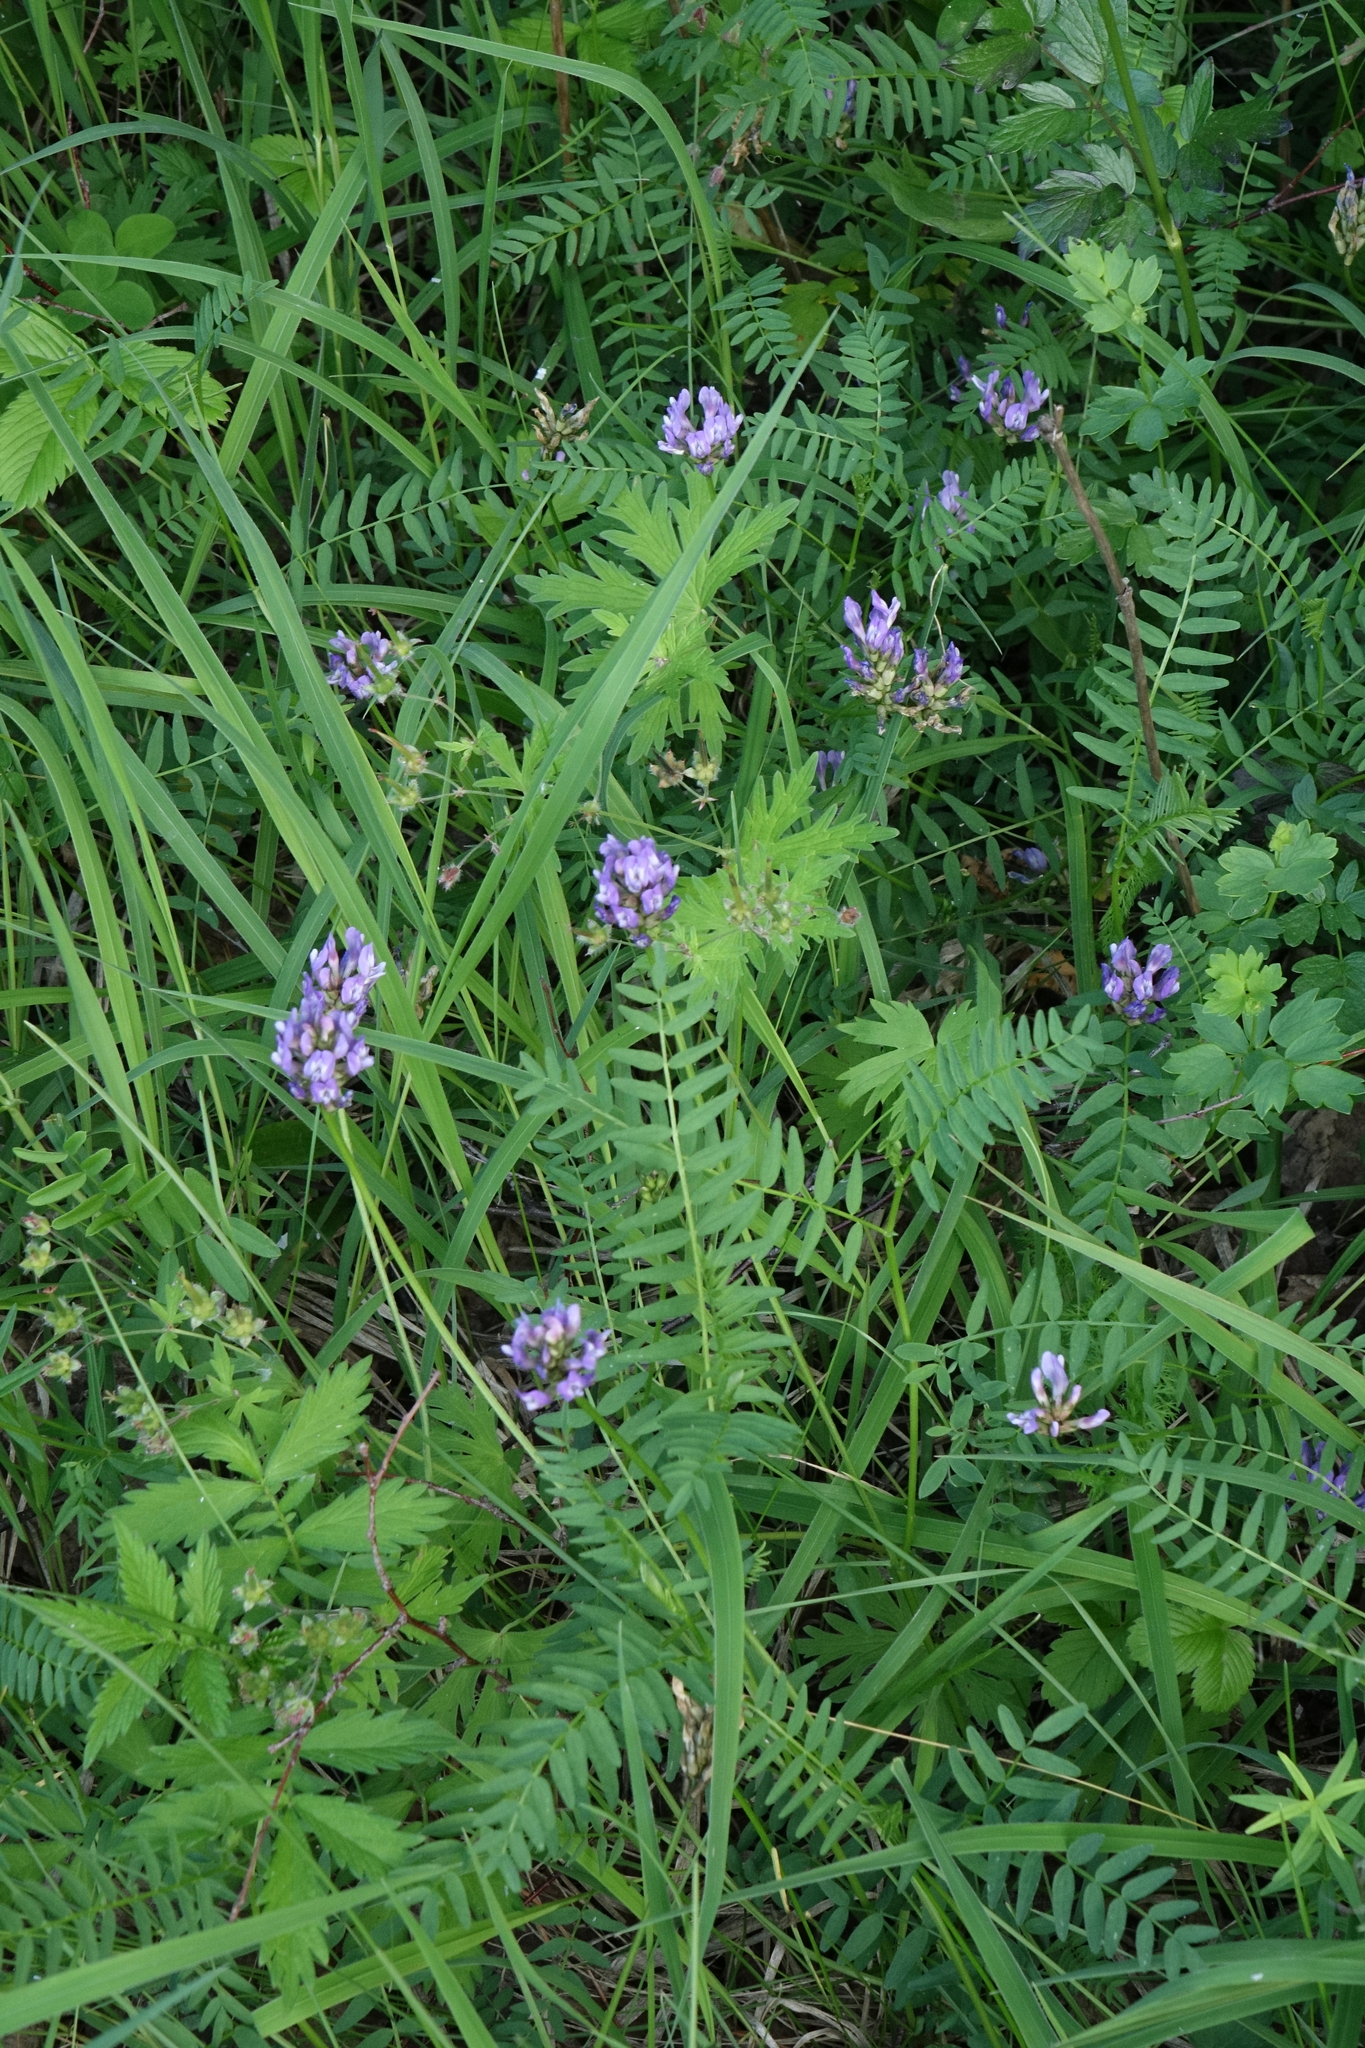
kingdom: Plantae
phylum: Tracheophyta
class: Magnoliopsida
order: Fabales
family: Fabaceae
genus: Astragalus
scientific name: Astragalus danicus
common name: Purple milk-vetch
